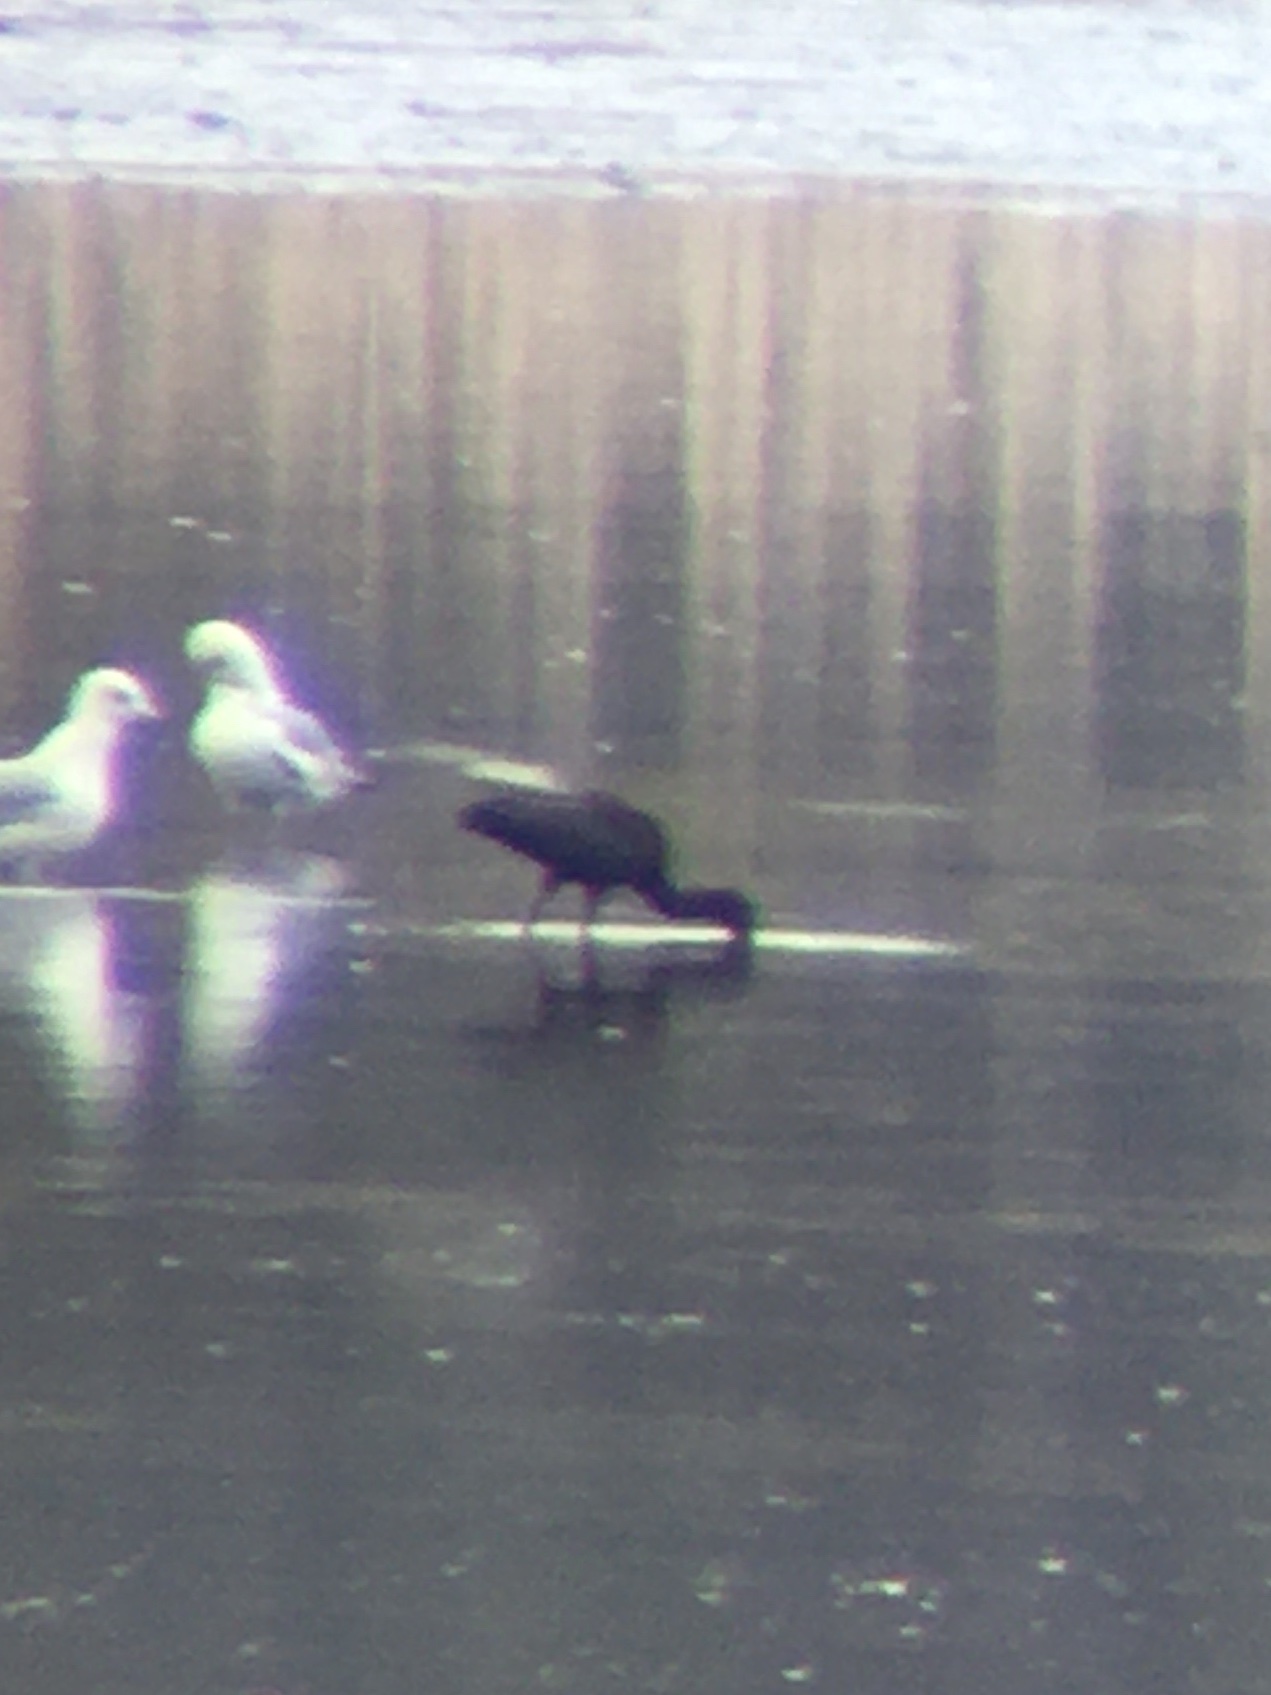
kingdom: Animalia
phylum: Chordata
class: Aves
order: Pelecaniformes
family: Threskiornithidae
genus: Plegadis
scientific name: Plegadis chihi
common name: White-faced ibis
